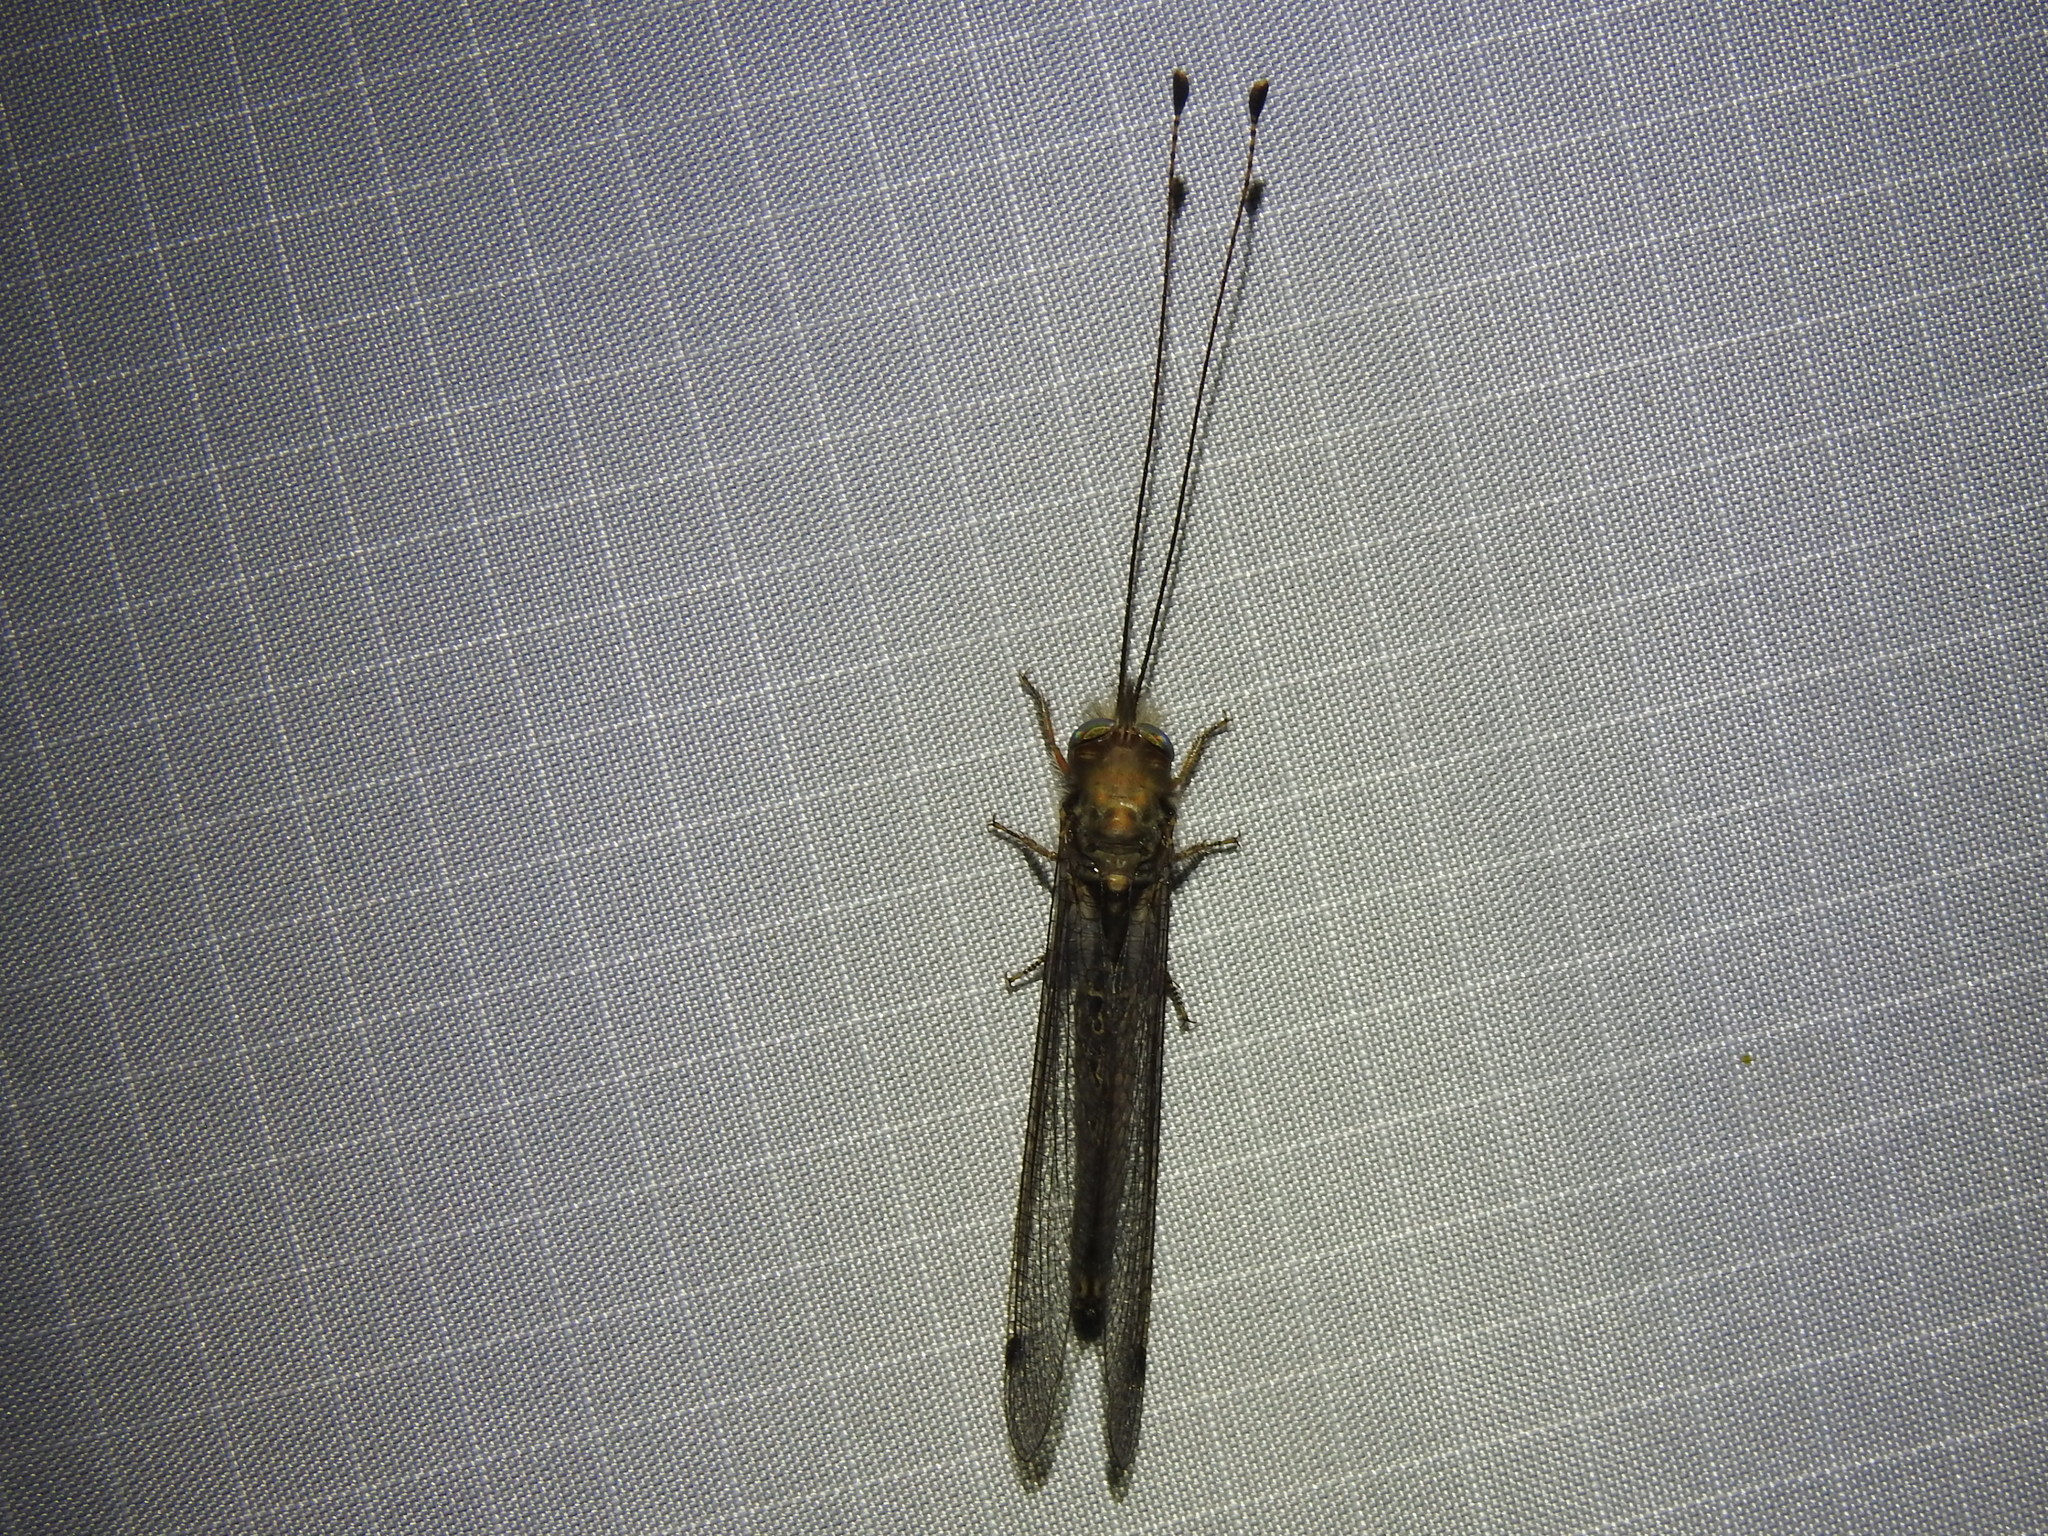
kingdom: Animalia
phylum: Arthropoda
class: Insecta
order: Neuroptera
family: Ascalaphidae
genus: Ululodes
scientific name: Ululodes macleayanus
